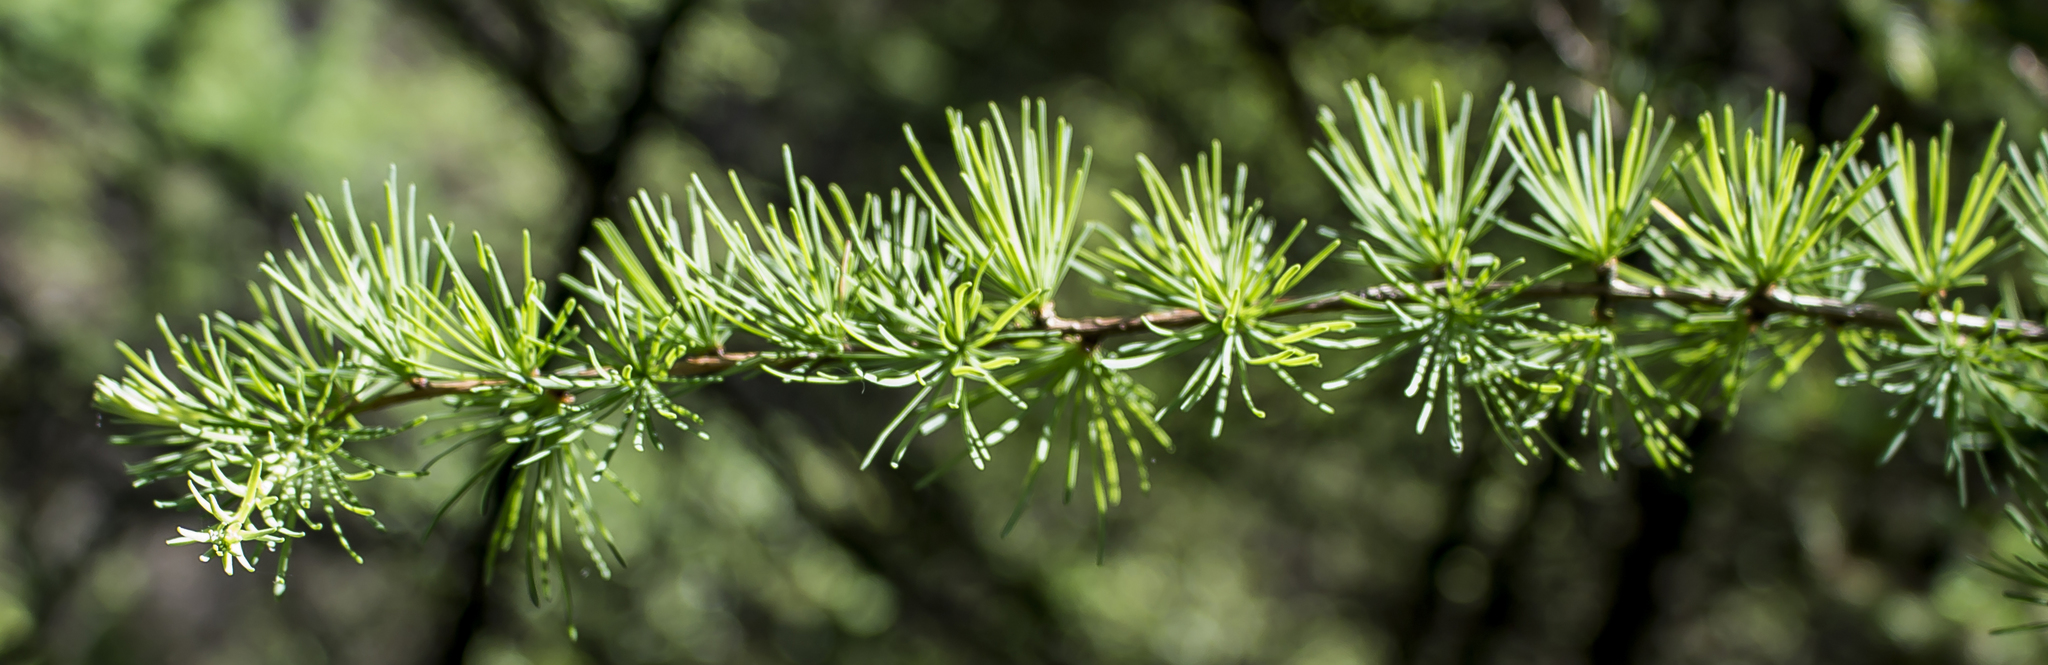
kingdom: Plantae
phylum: Tracheophyta
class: Pinopsida
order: Pinales
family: Pinaceae
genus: Larix
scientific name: Larix laricina
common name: American larch
